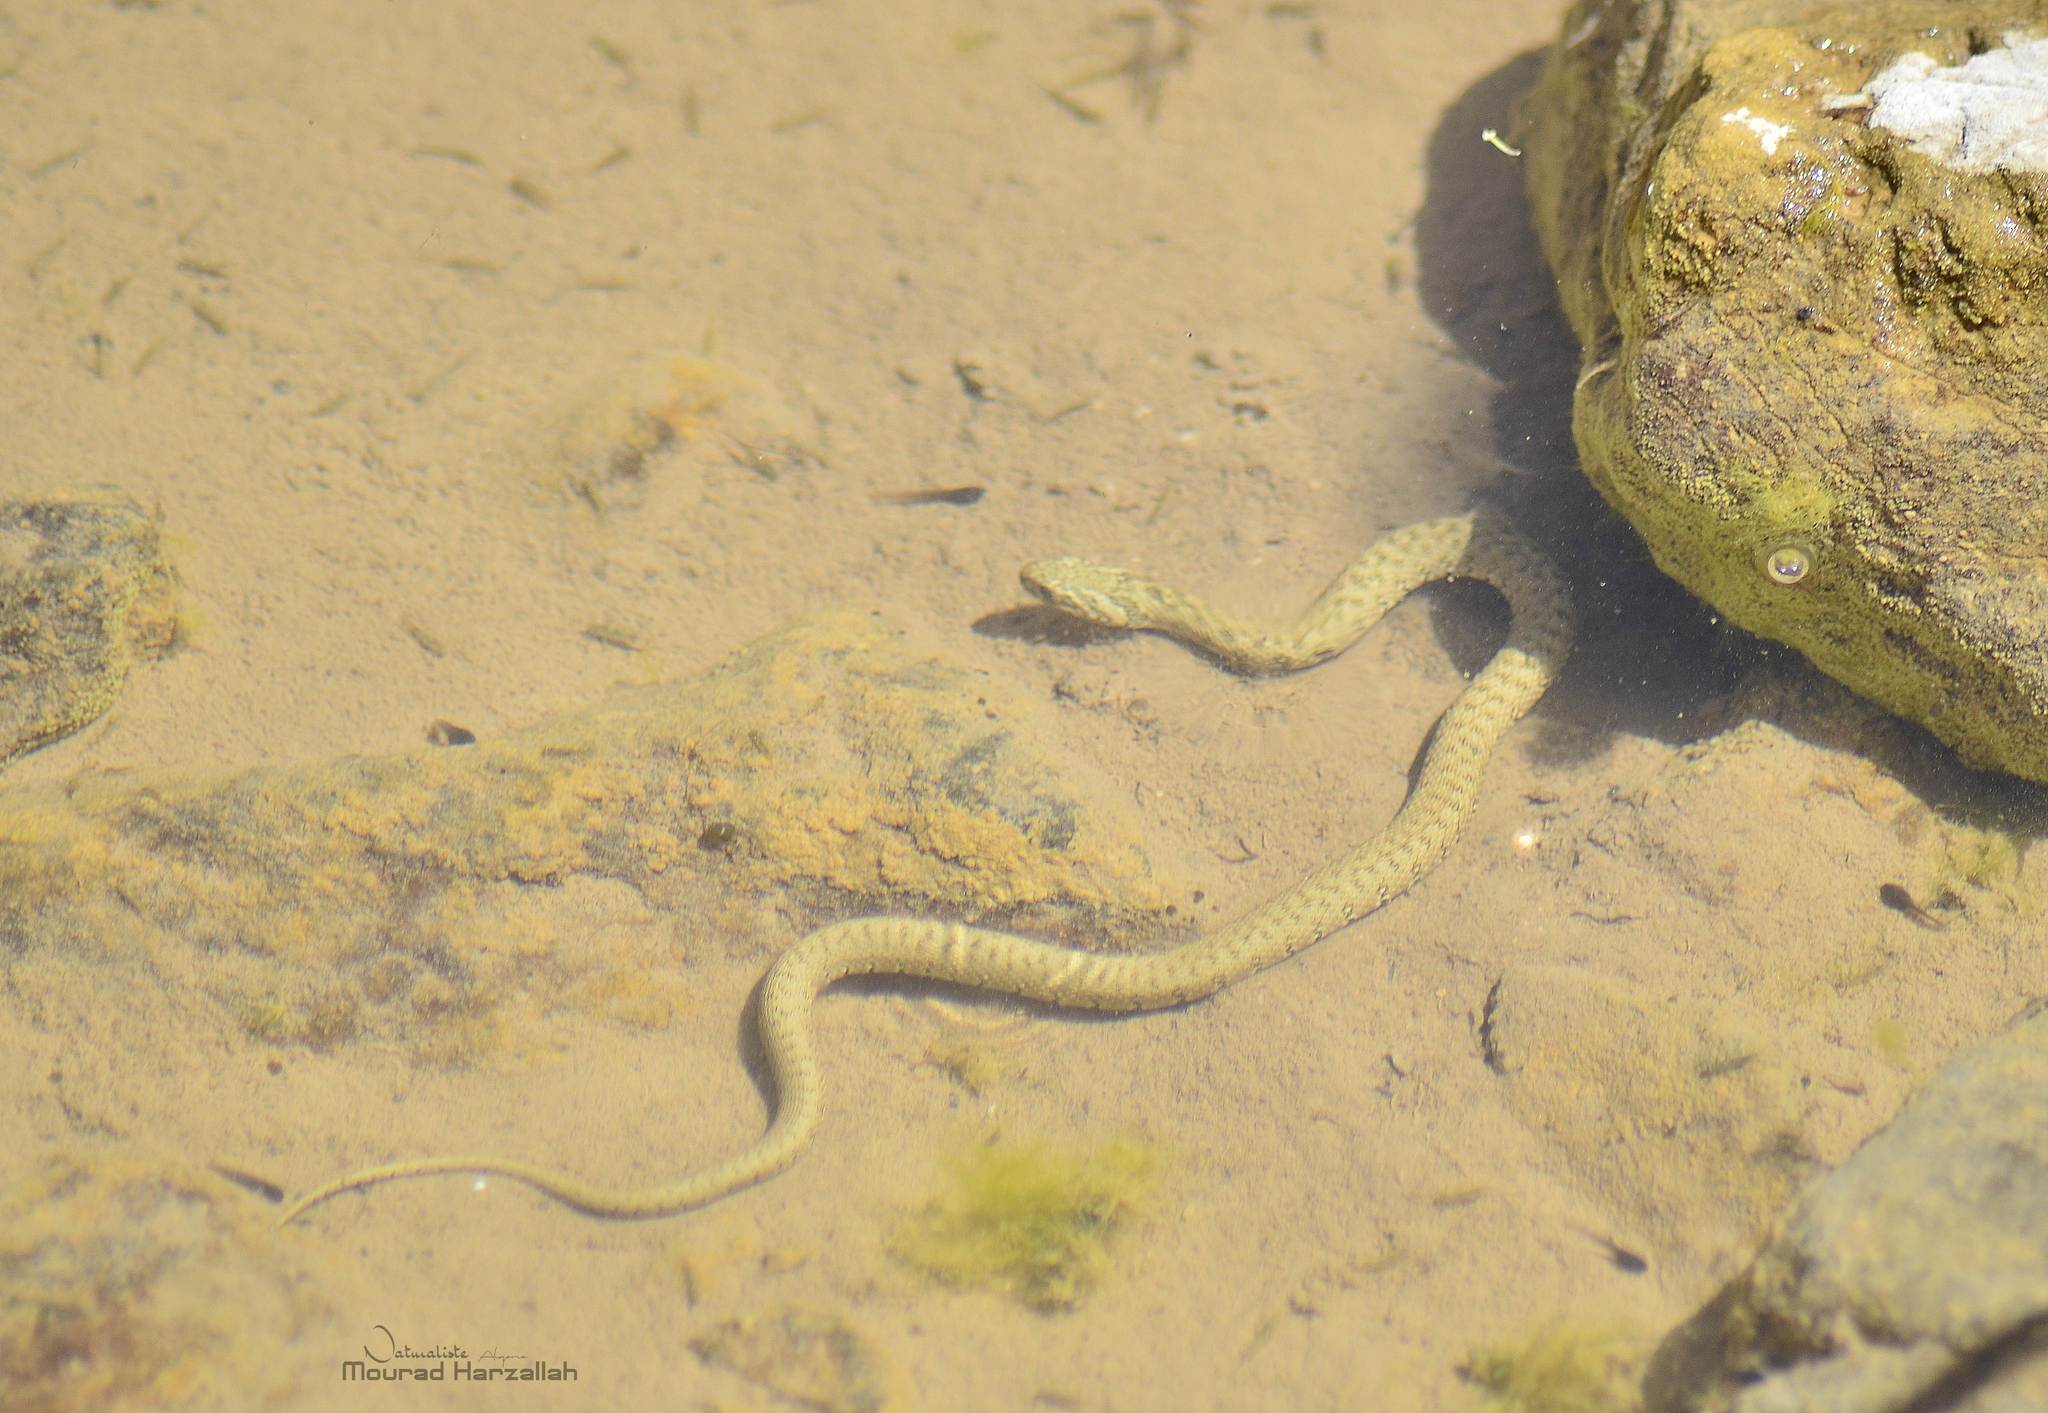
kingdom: Animalia
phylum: Chordata
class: Squamata
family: Colubridae
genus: Natrix
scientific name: Natrix maura
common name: Viperine water snake
